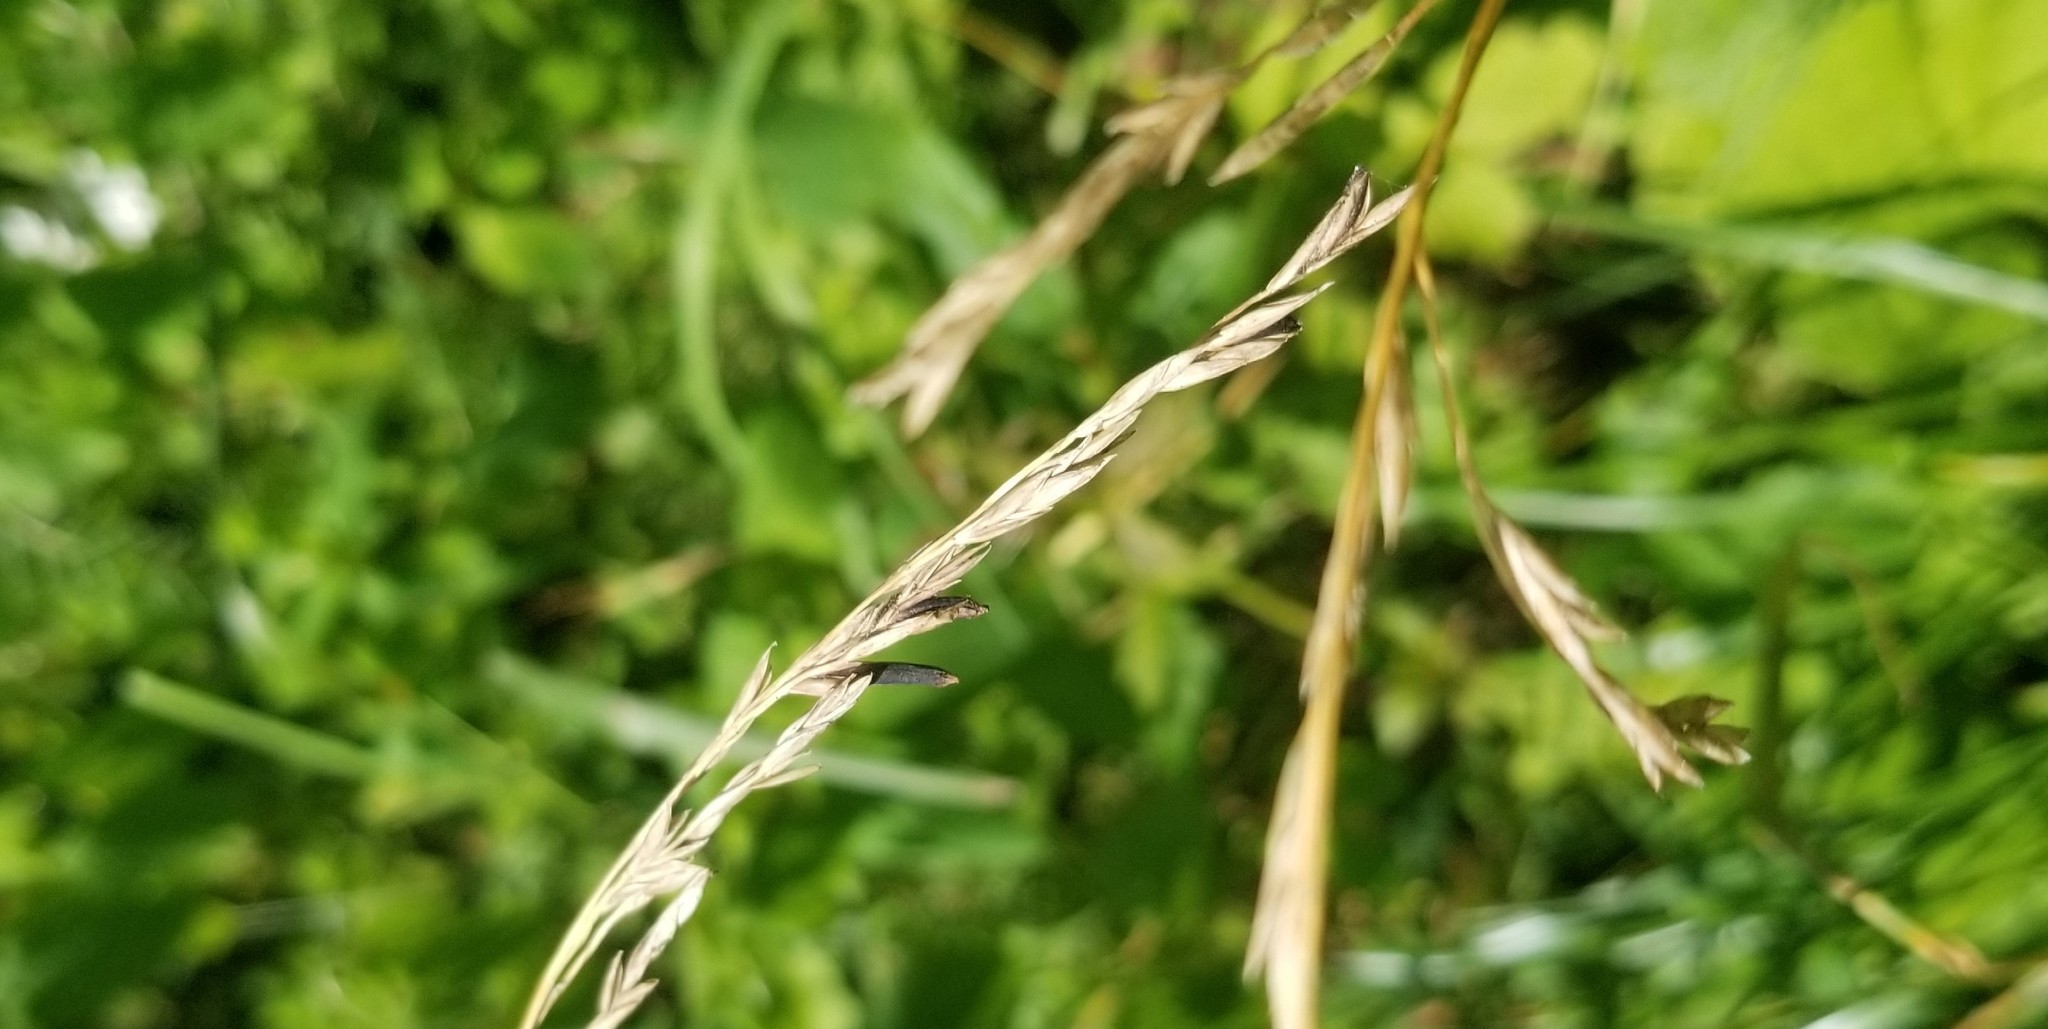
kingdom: Fungi
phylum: Ascomycota
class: Sordariomycetes
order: Hypocreales
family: Clavicipitaceae
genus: Claviceps
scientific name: Claviceps purpurea
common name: Rye ergot
